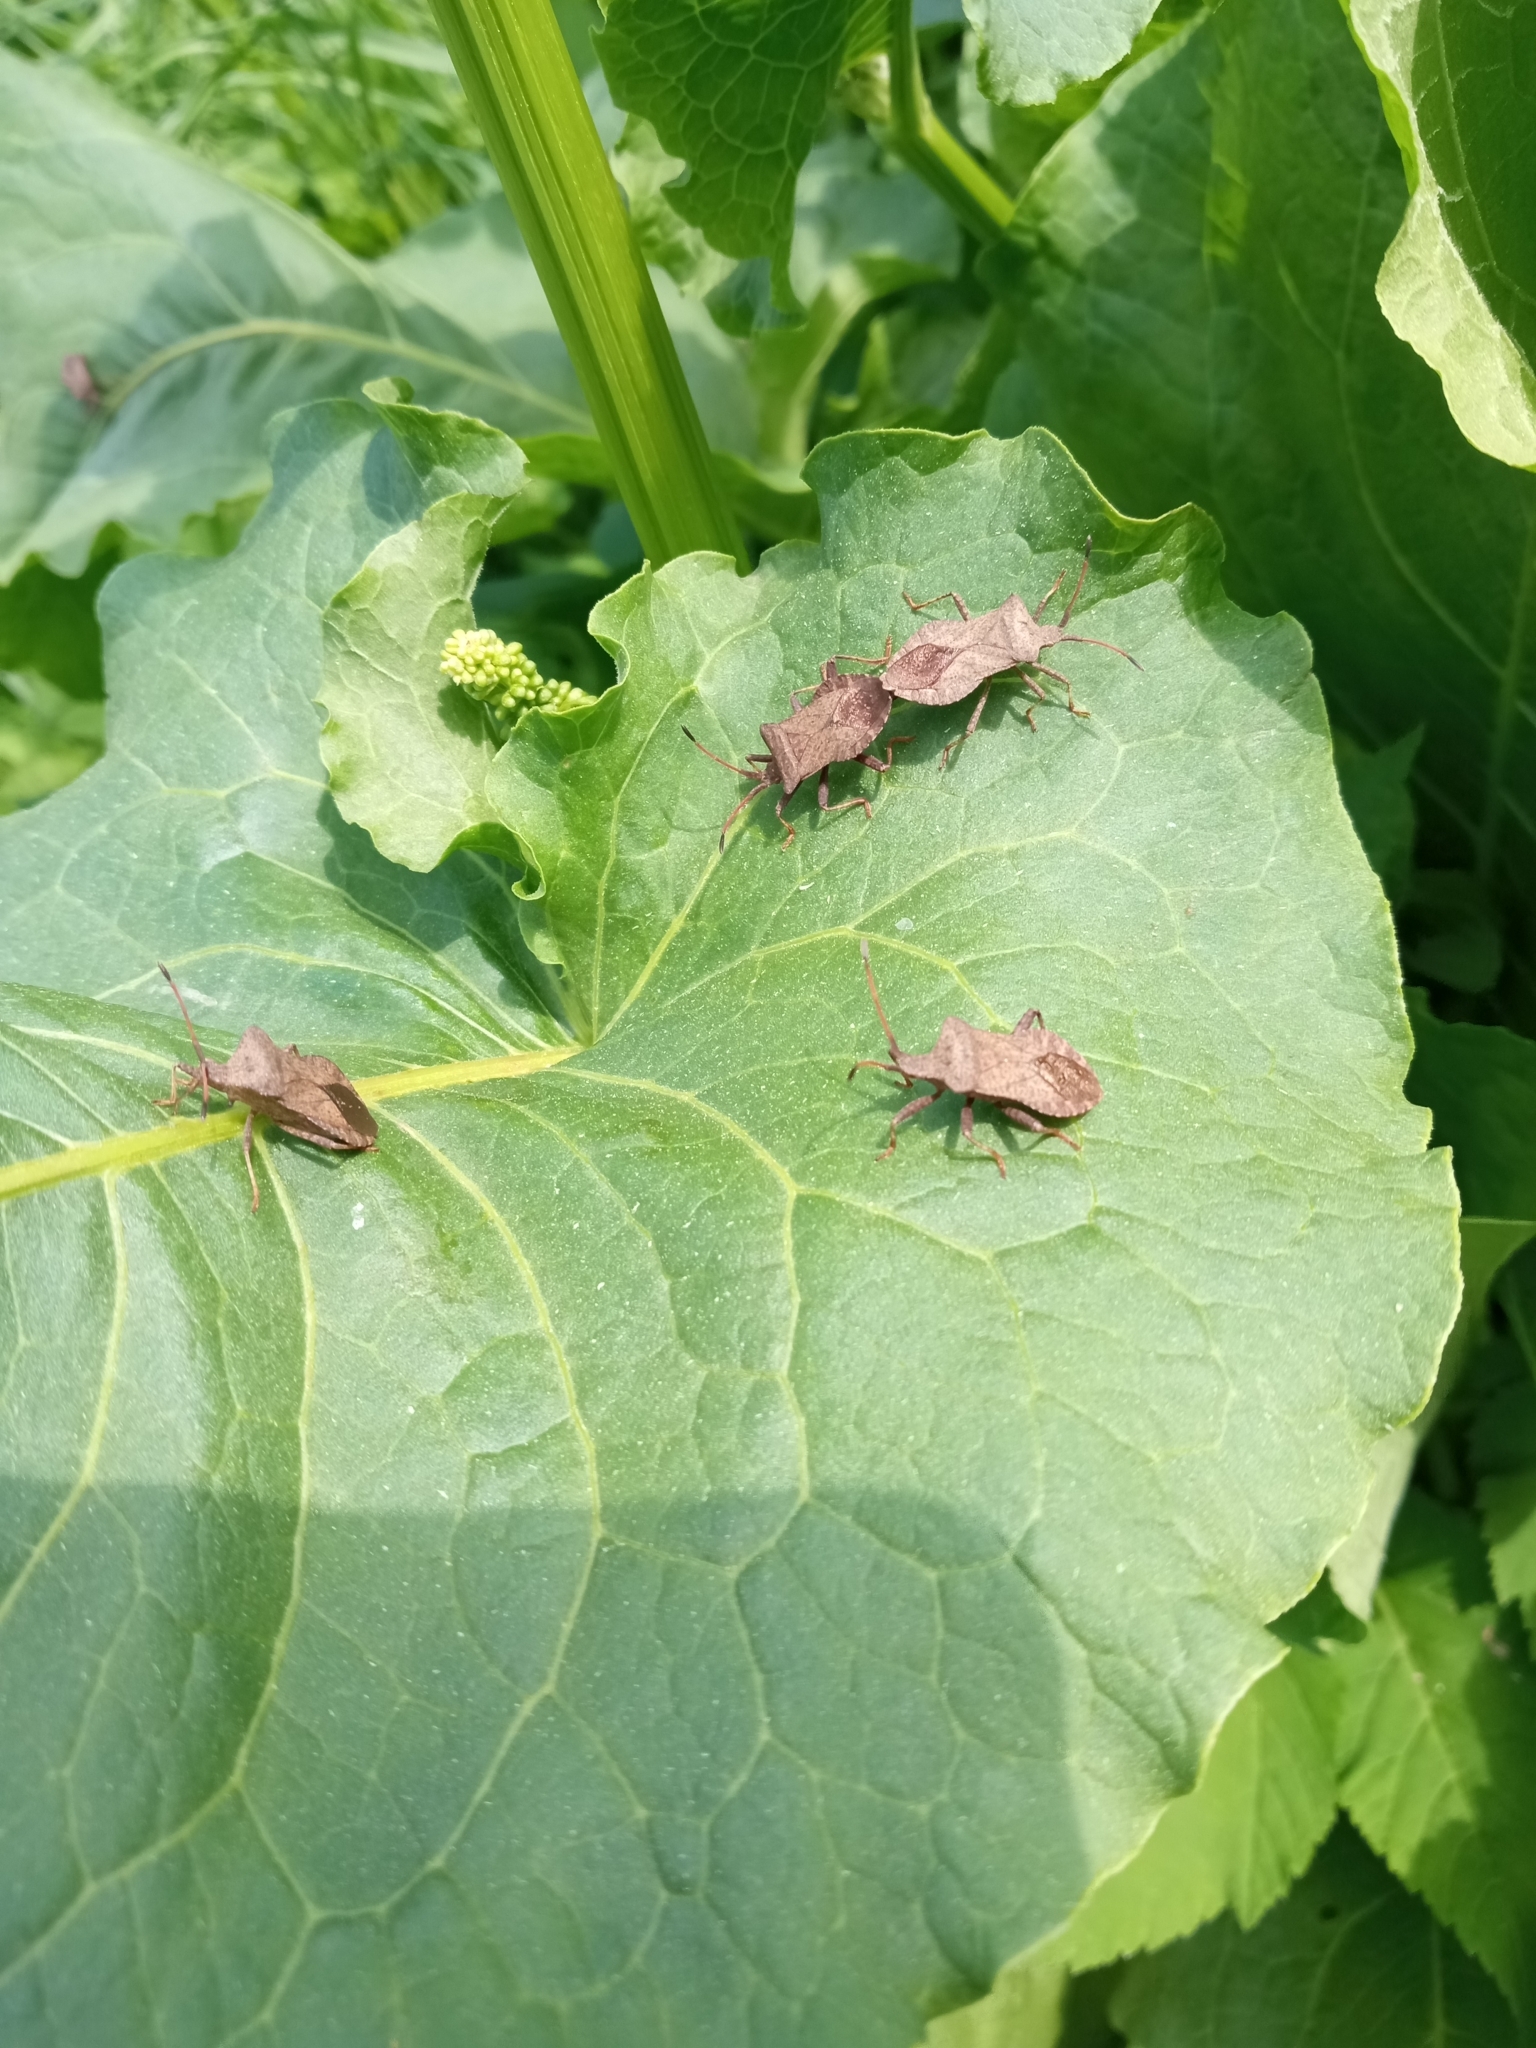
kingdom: Animalia
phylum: Arthropoda
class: Insecta
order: Hemiptera
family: Coreidae
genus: Coreus
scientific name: Coreus marginatus
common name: Dock bug
